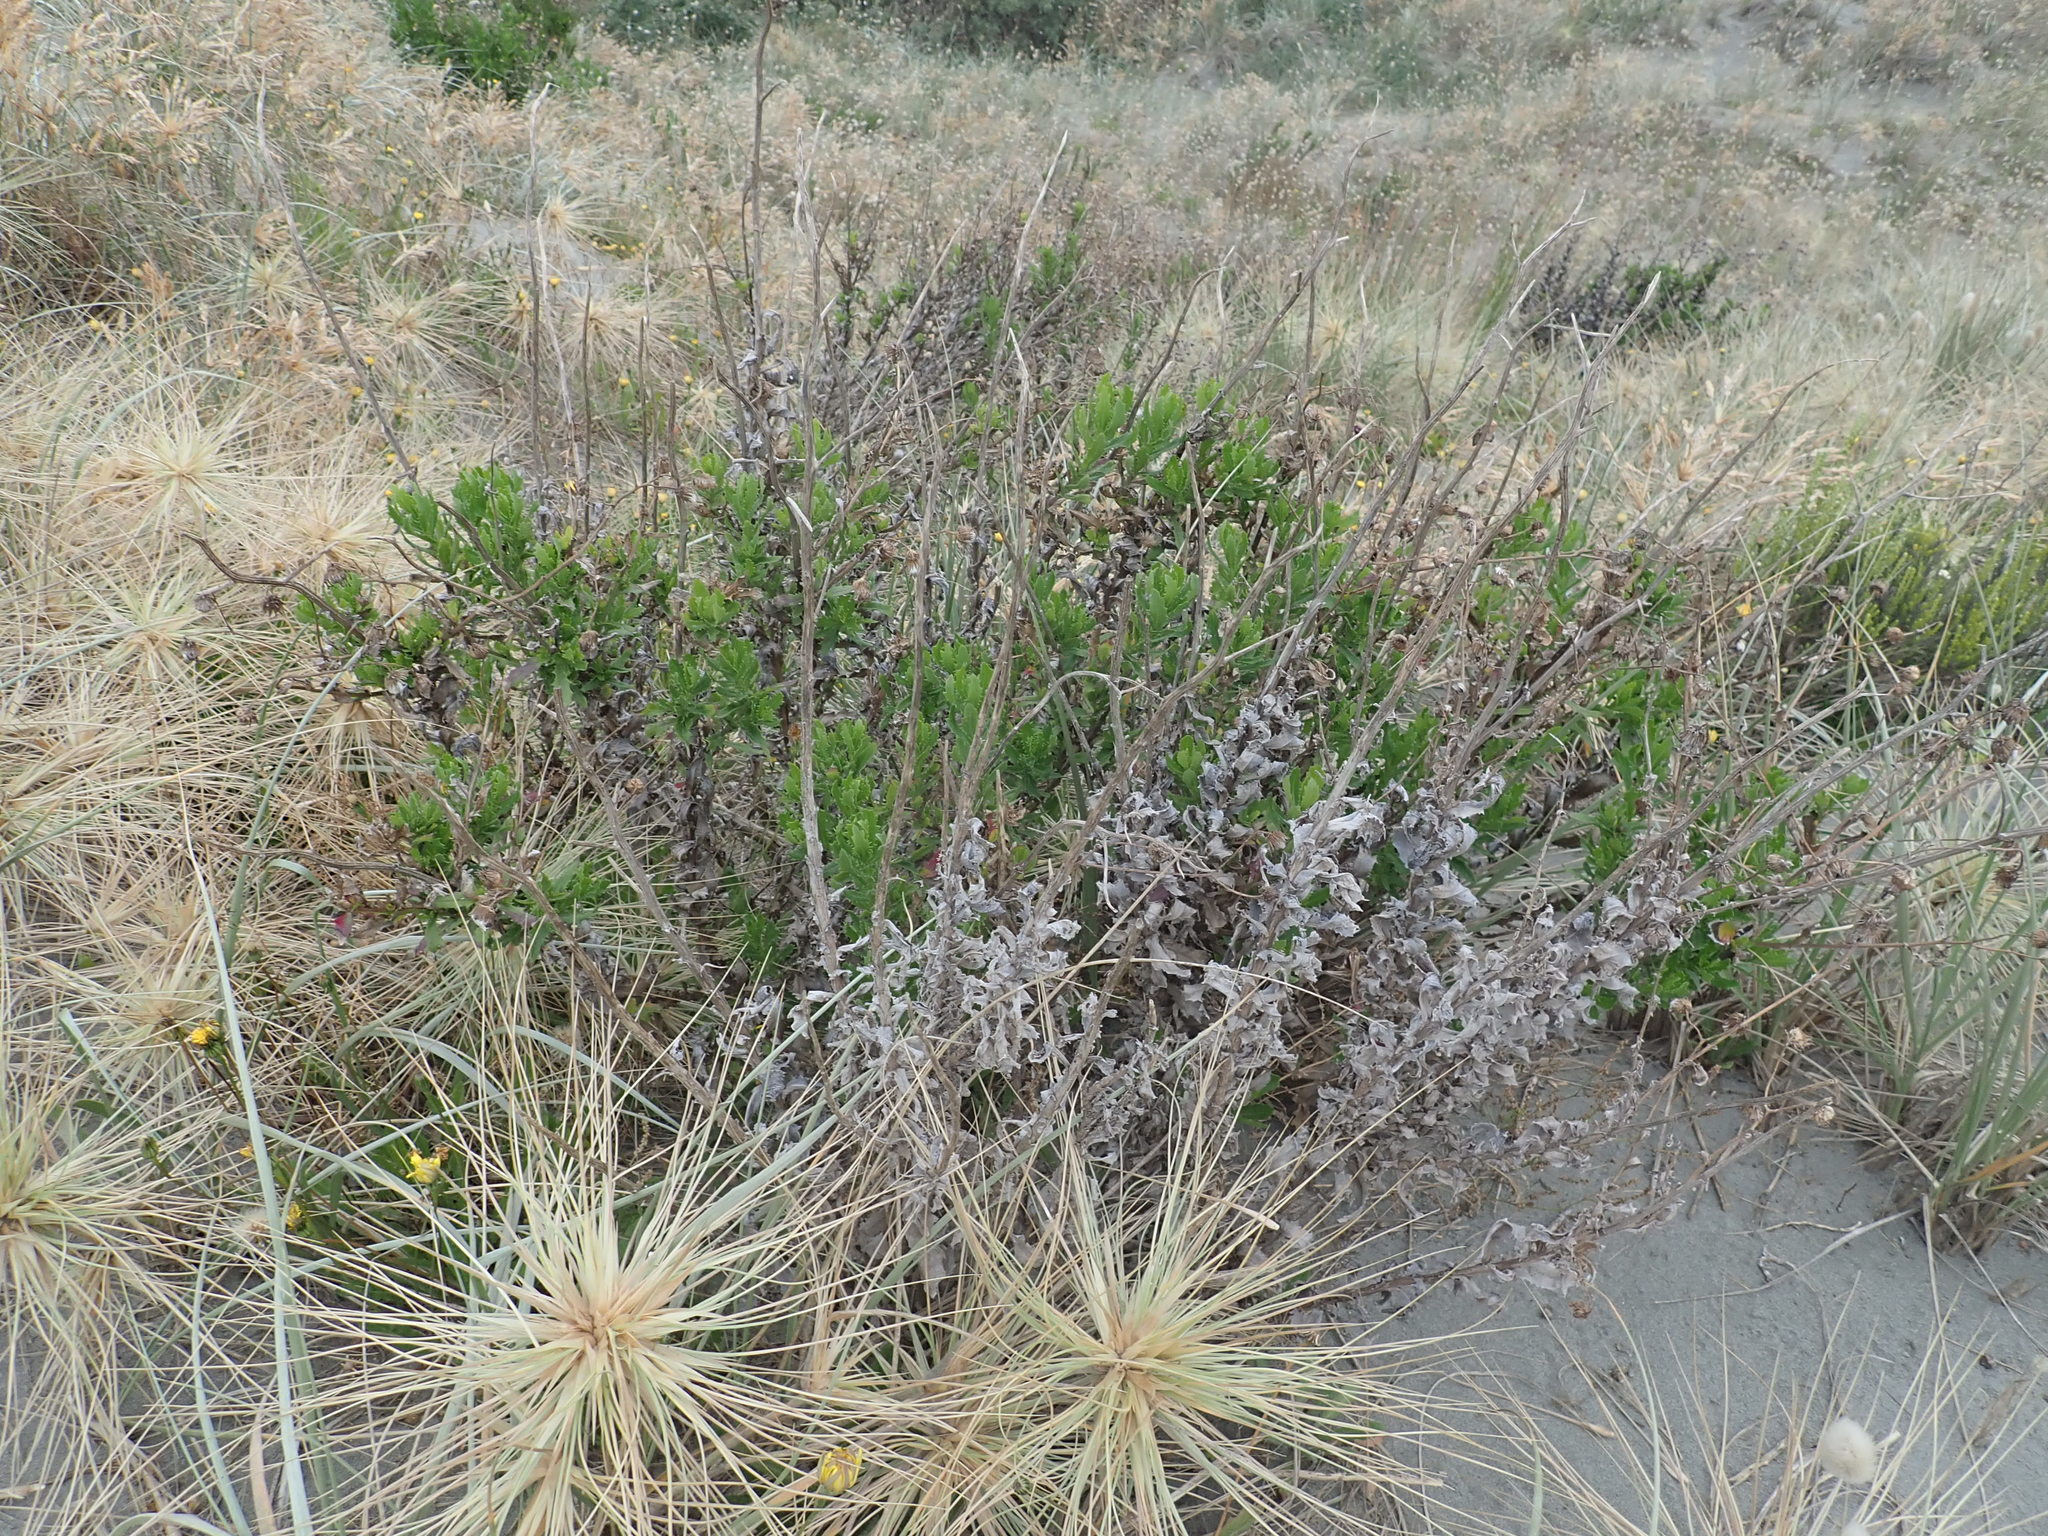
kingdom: Plantae
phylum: Tracheophyta
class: Magnoliopsida
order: Asterales
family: Asteraceae
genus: Senecio
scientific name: Senecio glastifolius
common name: Woad-leaved ragwort
